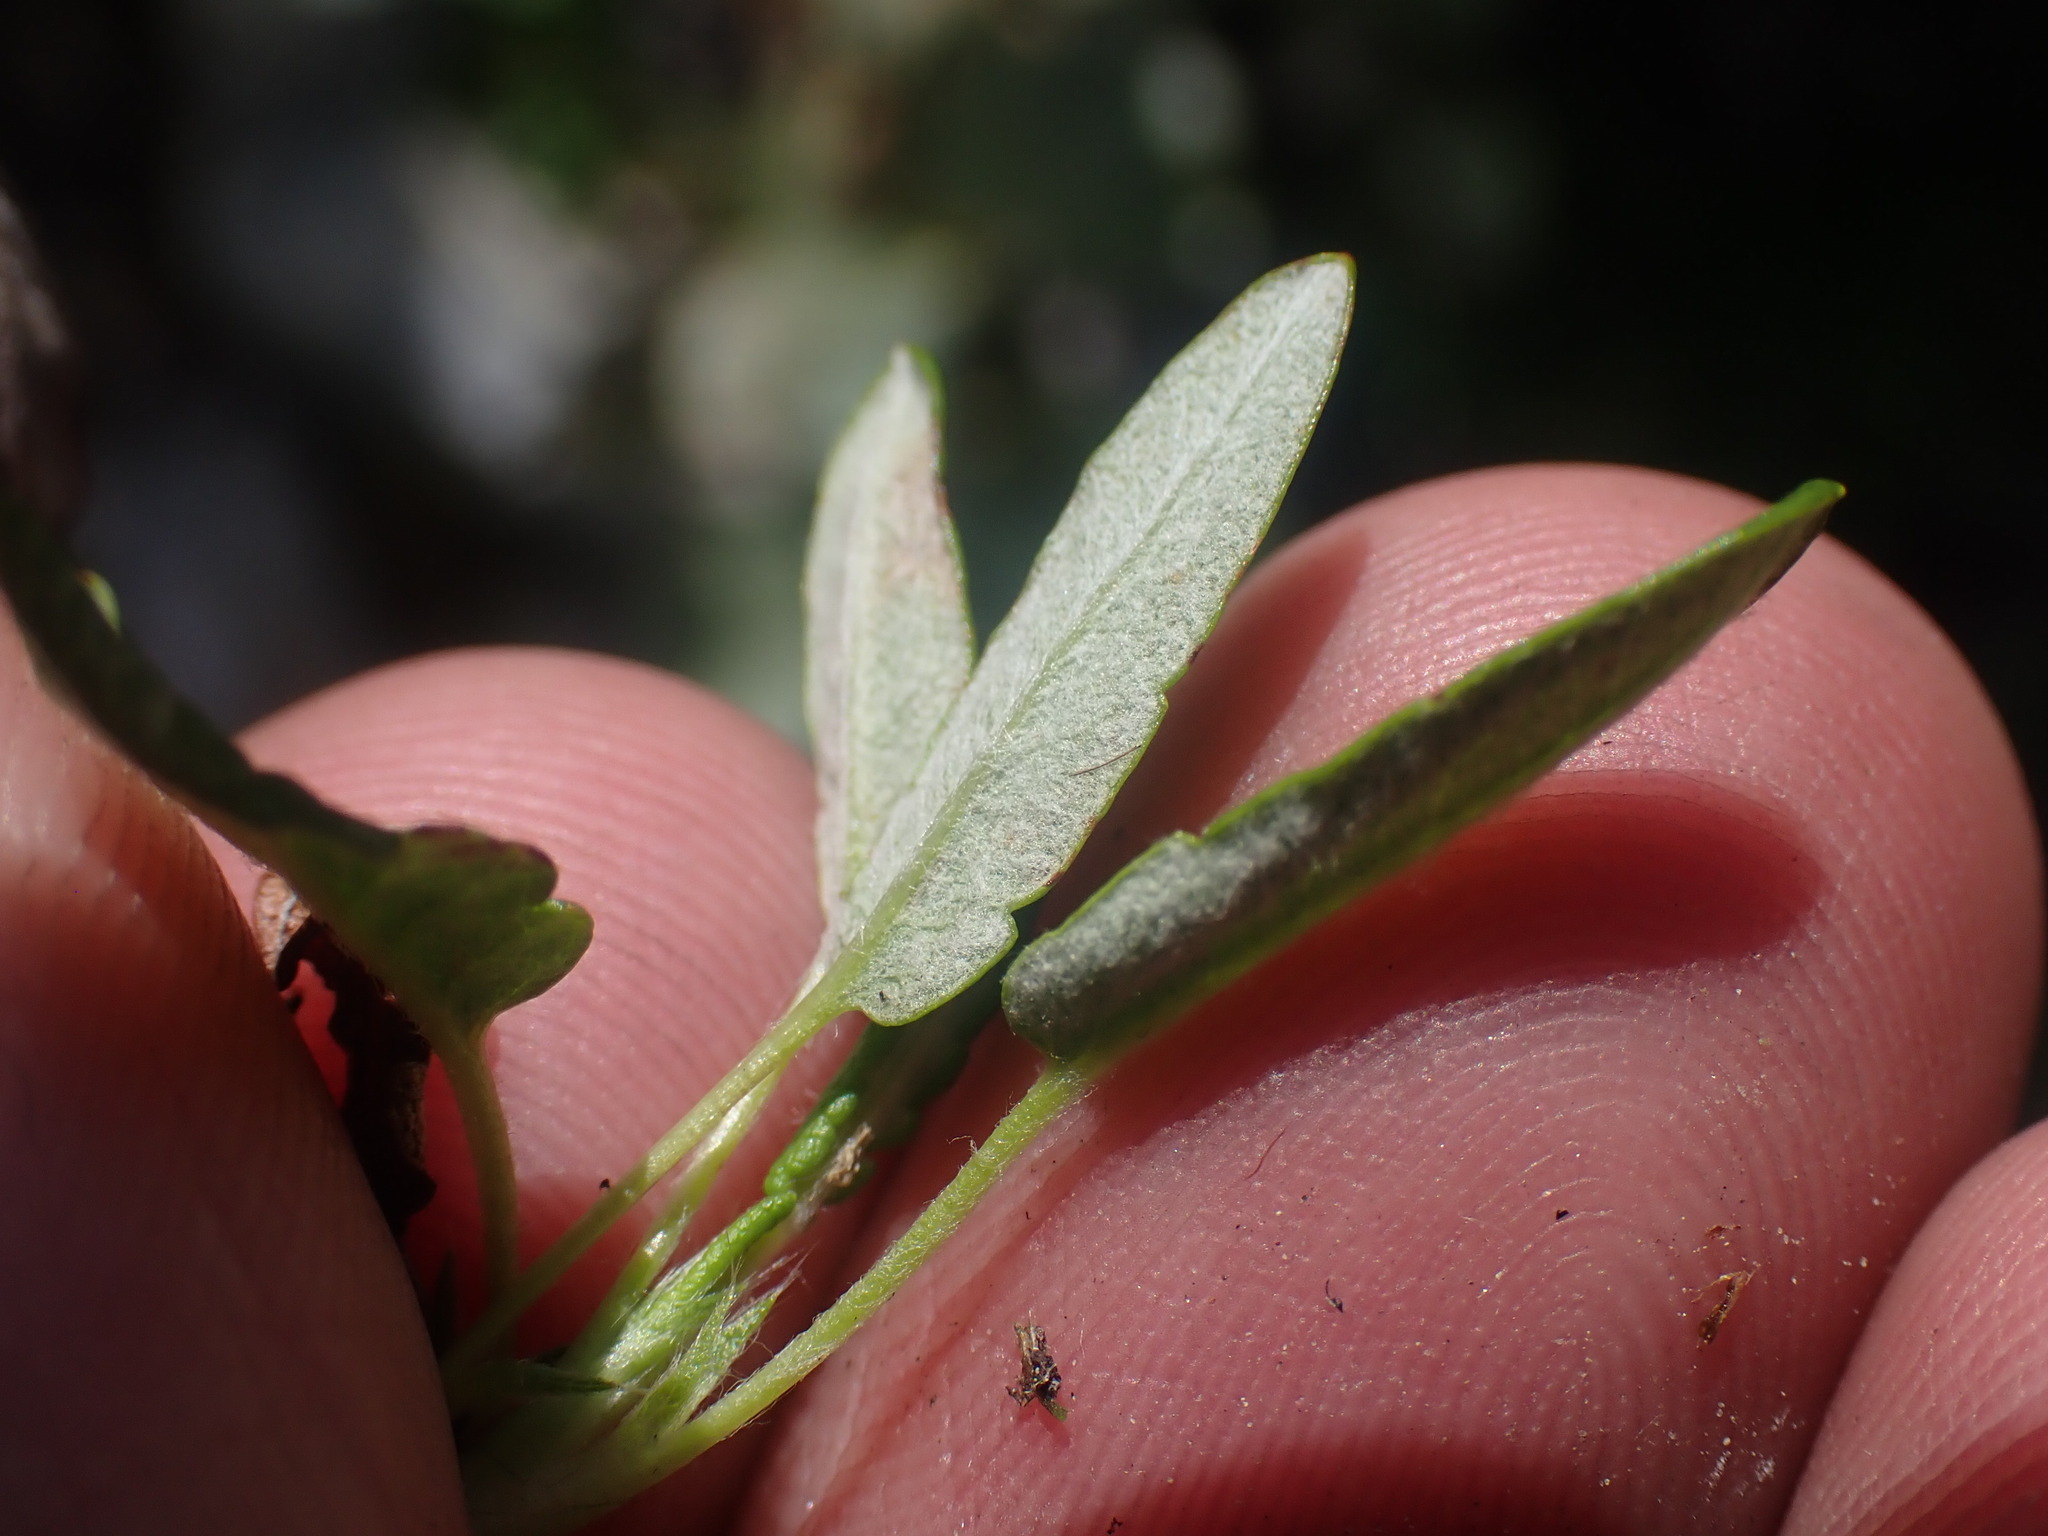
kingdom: Plantae
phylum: Tracheophyta
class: Magnoliopsida
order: Rosales
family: Rosaceae
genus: Dryas
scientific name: Dryas integrifolia
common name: Entire-leaved mountain avens
